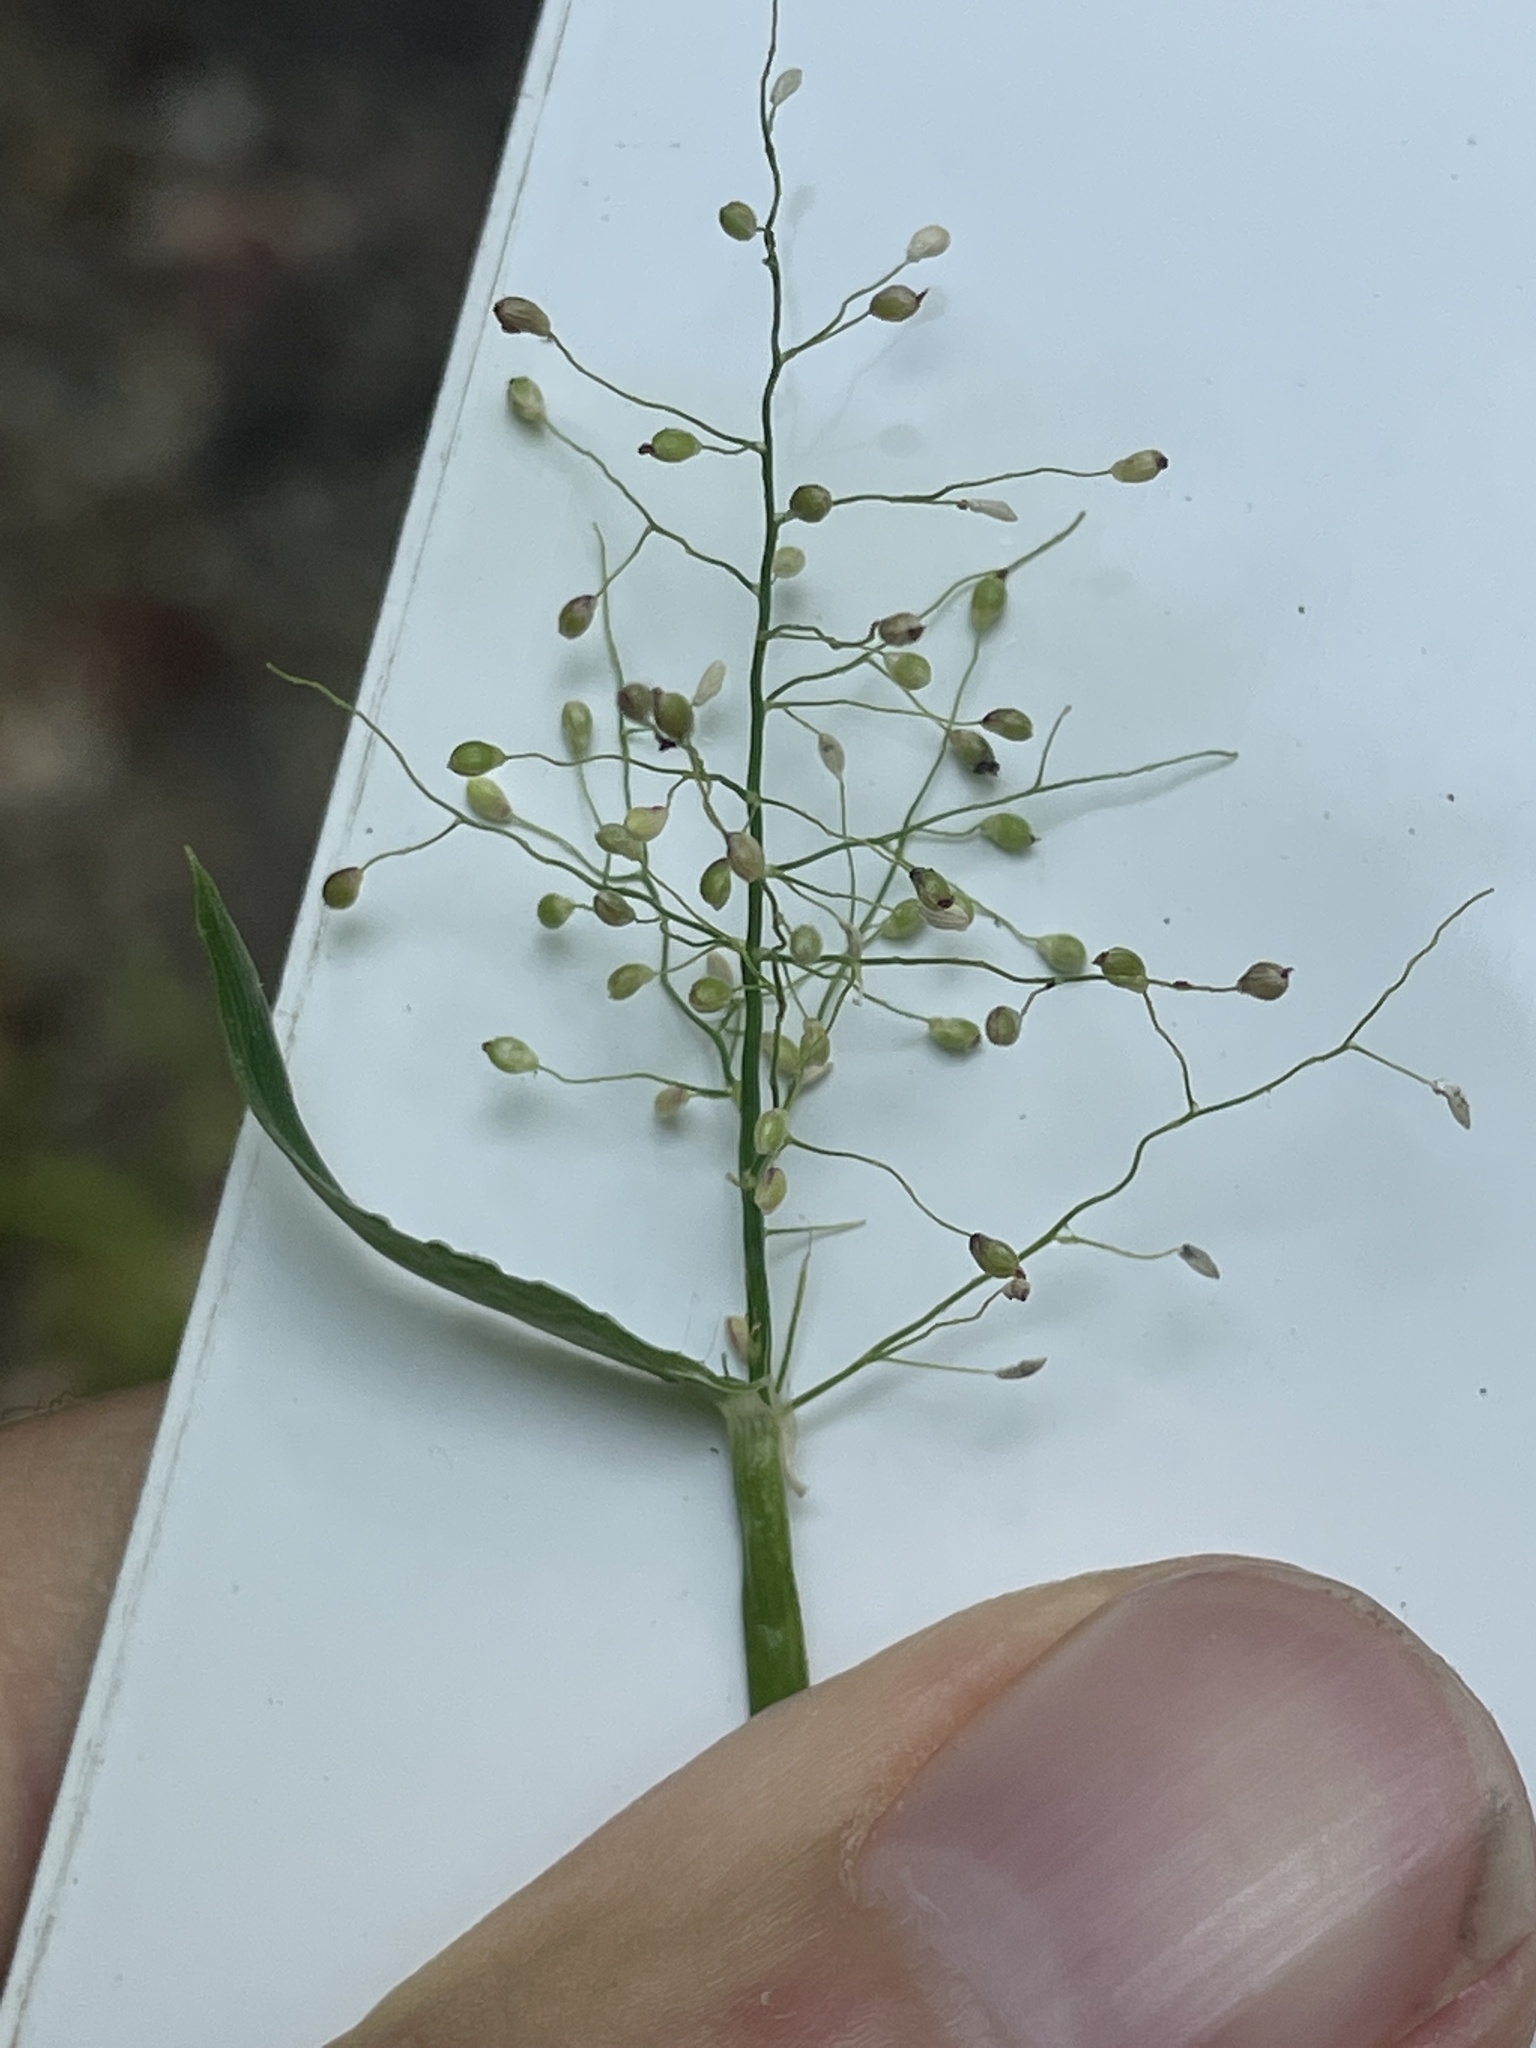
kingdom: Plantae
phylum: Tracheophyta
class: Liliopsida
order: Poales
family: Poaceae
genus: Dichanthelium
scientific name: Dichanthelium sphaerocarpon
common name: Round-fruited panicgrass
